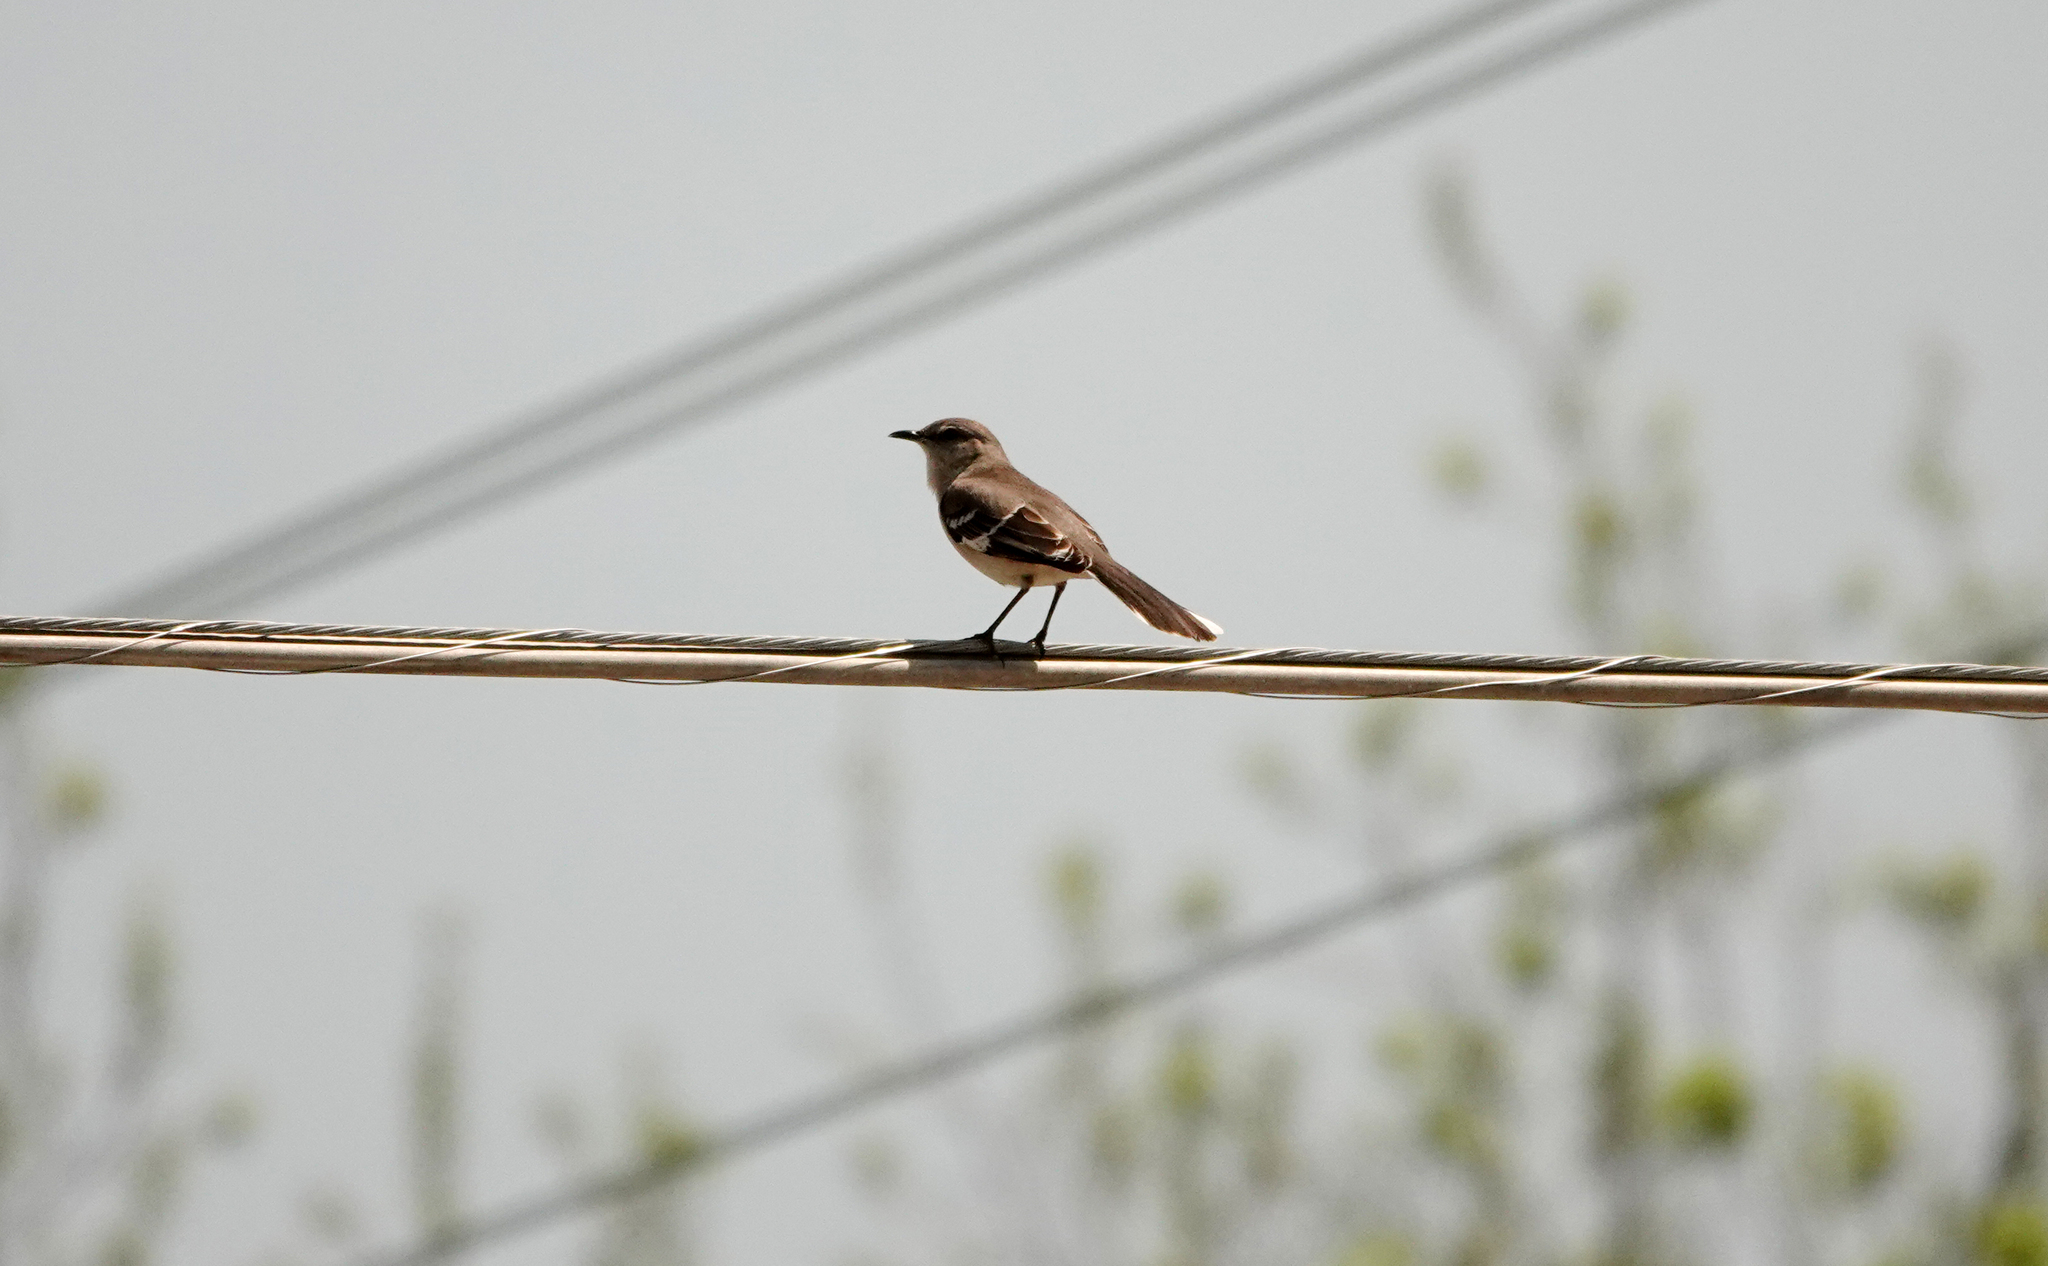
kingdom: Animalia
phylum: Chordata
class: Aves
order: Passeriformes
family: Mimidae
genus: Mimus
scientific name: Mimus polyglottos
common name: Northern mockingbird
